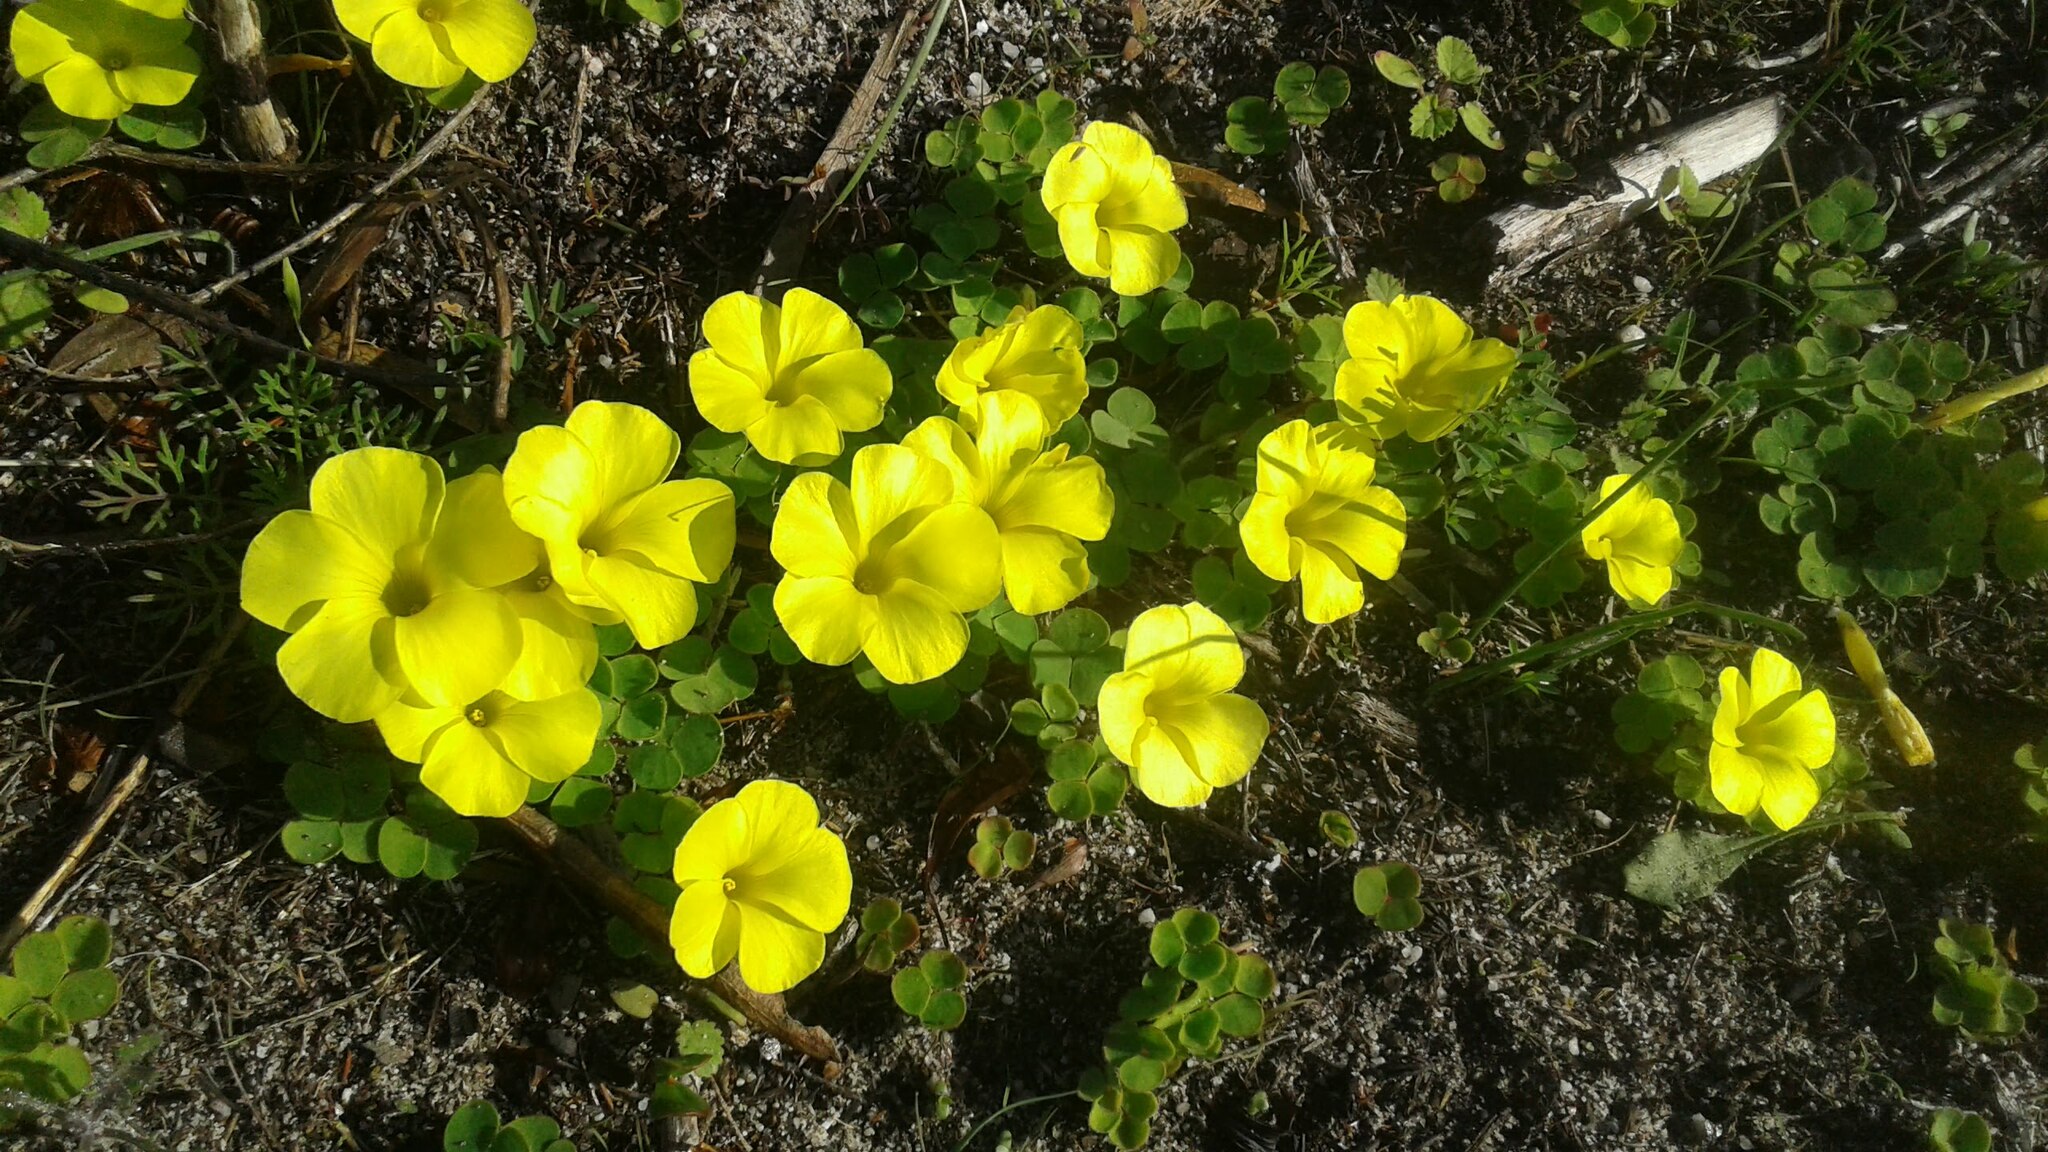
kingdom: Plantae
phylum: Tracheophyta
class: Magnoliopsida
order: Oxalidales
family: Oxalidaceae
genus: Oxalis
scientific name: Oxalis luteola
